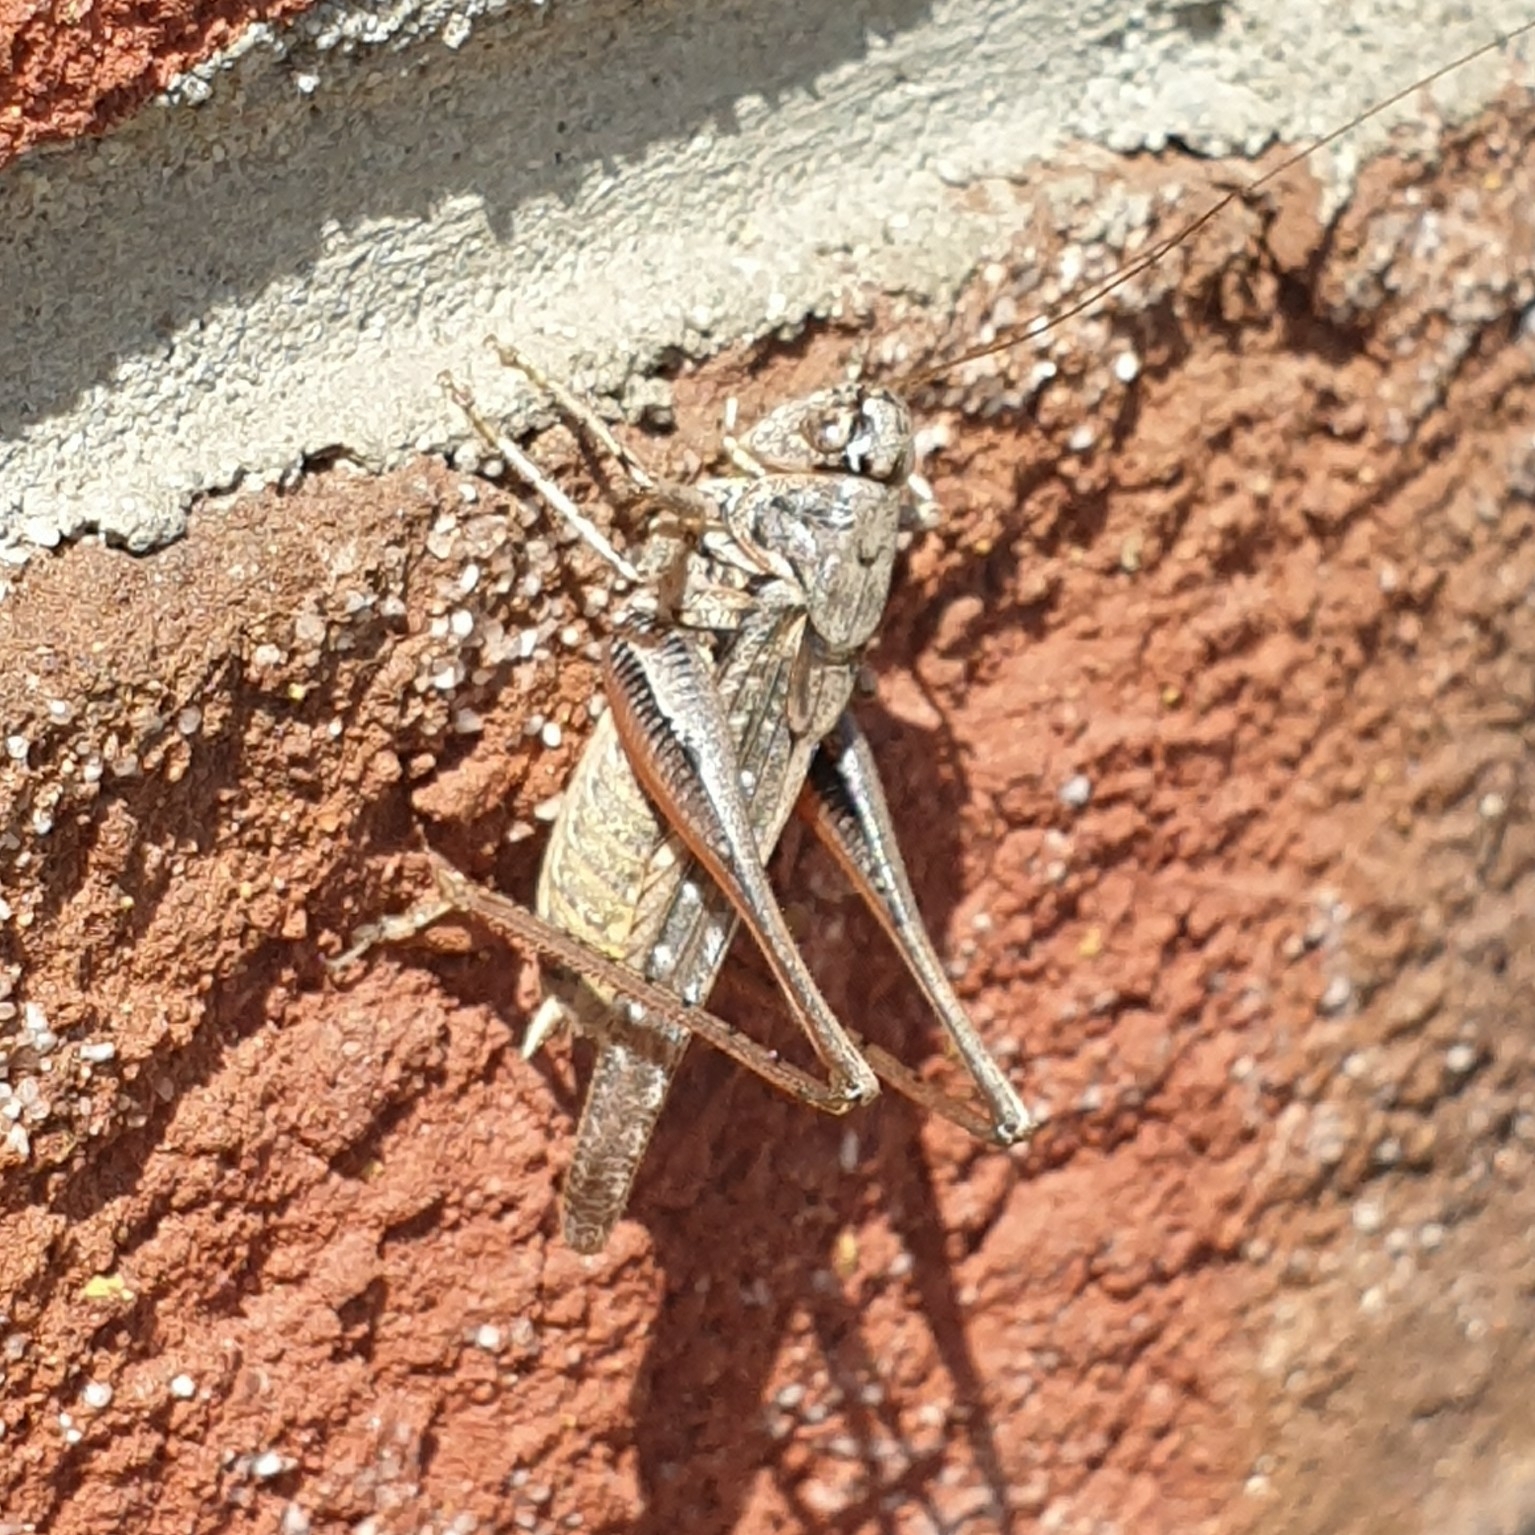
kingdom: Animalia
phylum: Arthropoda
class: Insecta
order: Orthoptera
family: Tettigoniidae
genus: Platycleis
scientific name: Platycleis albopunctata
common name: Grey bush-cricket
